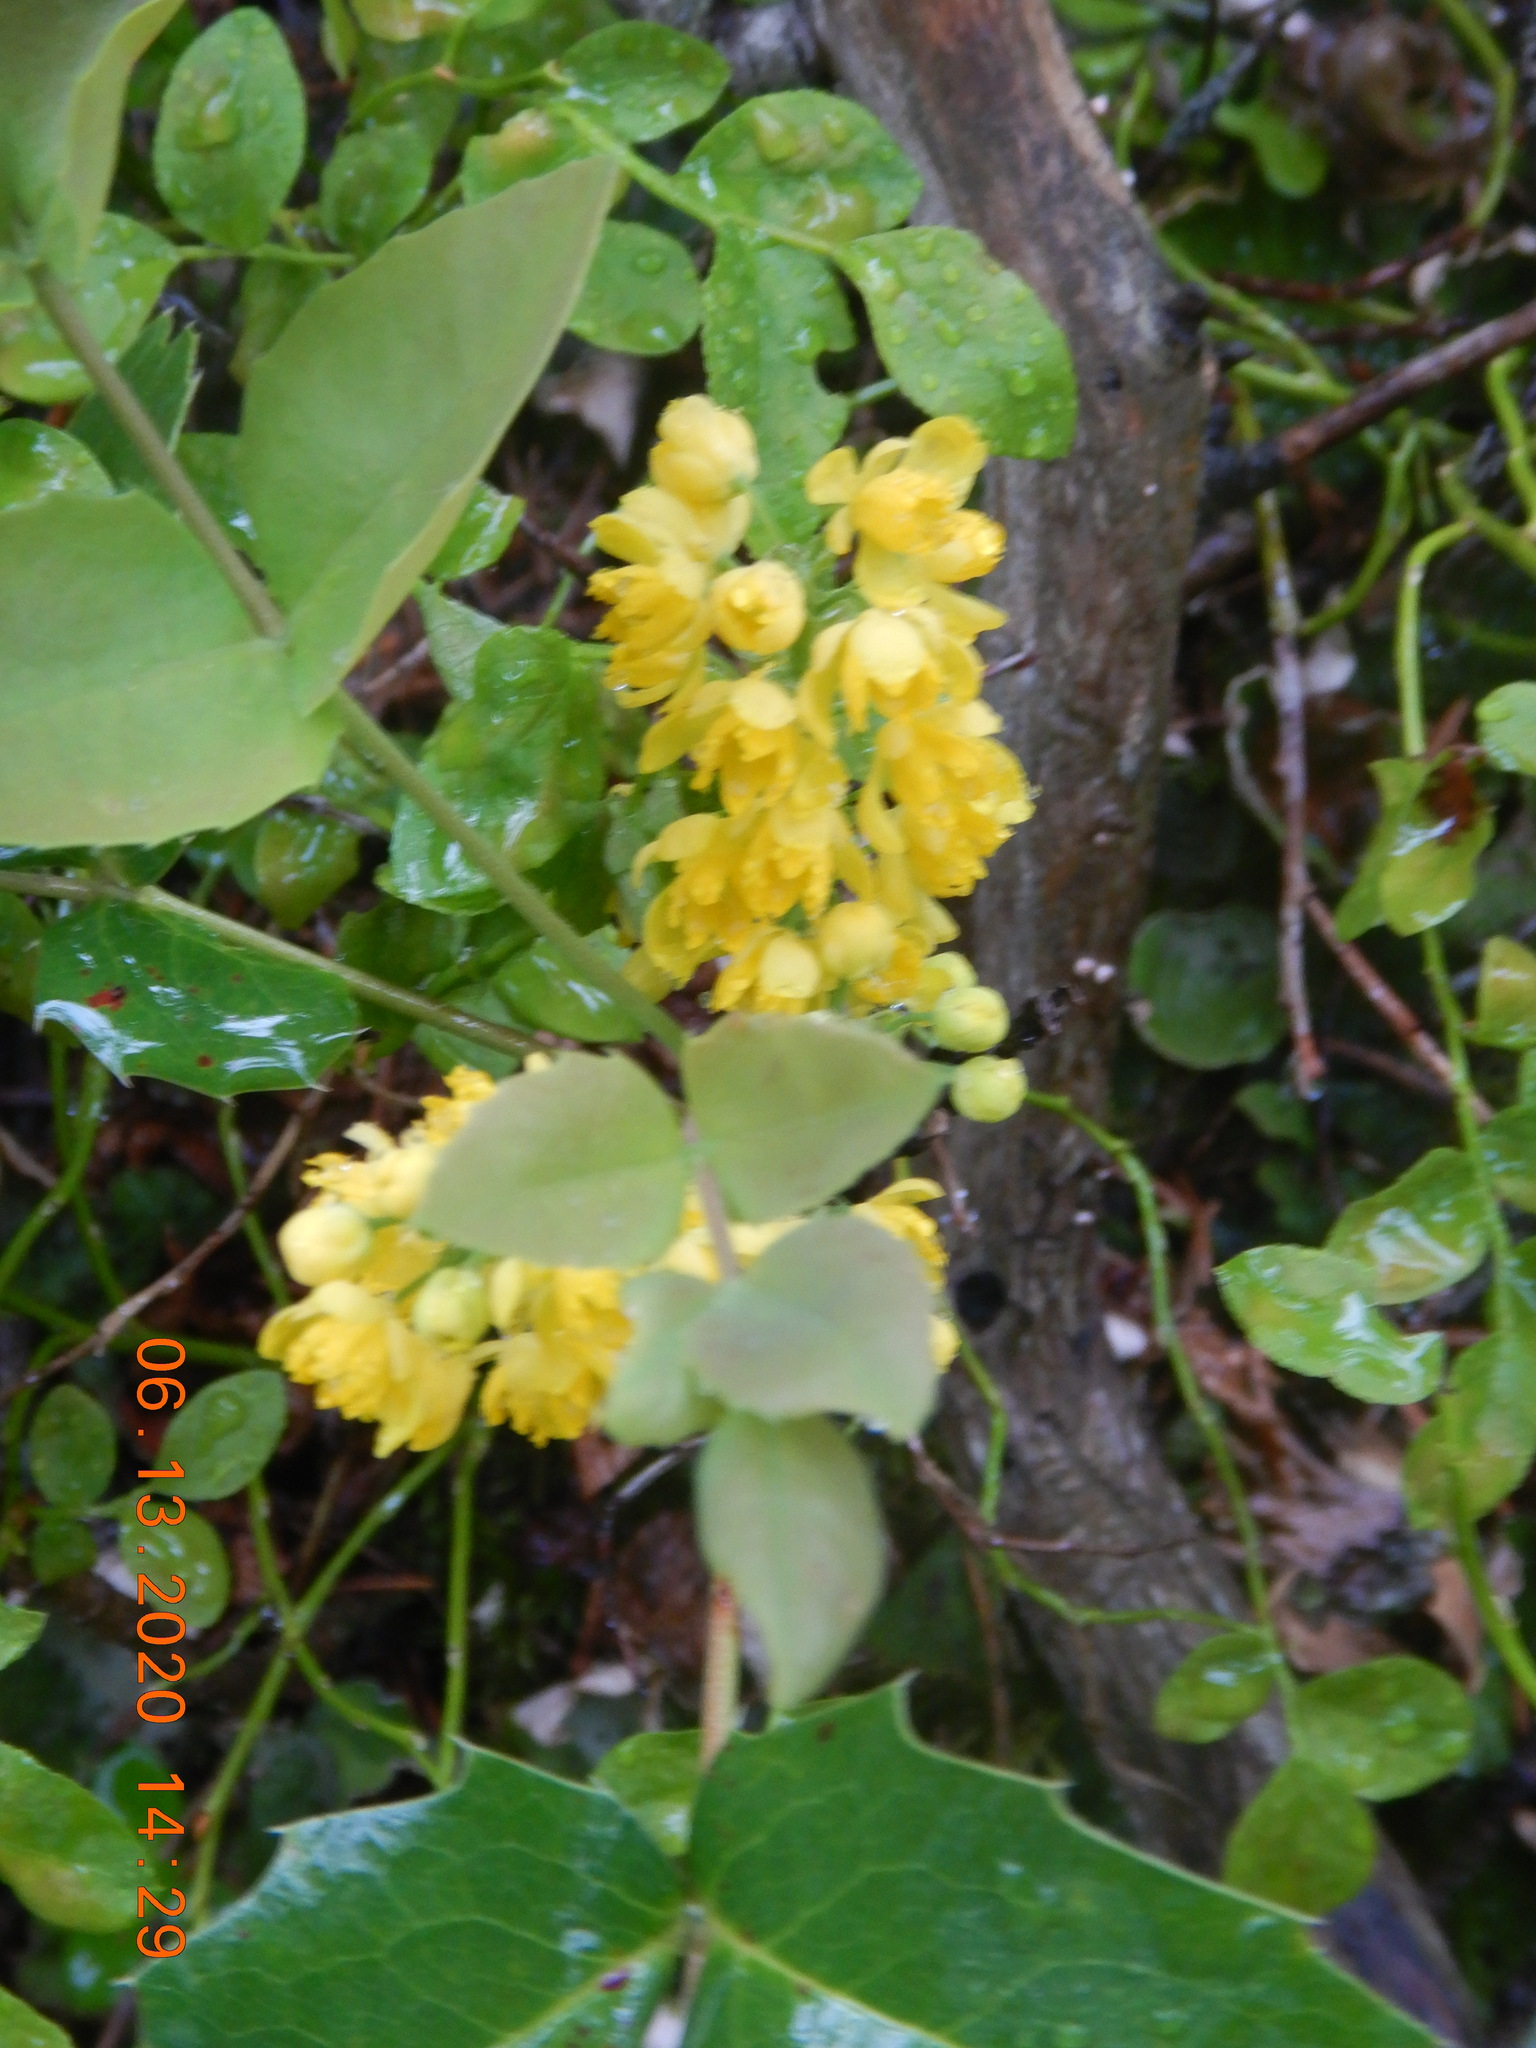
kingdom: Plantae
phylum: Tracheophyta
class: Magnoliopsida
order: Ranunculales
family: Berberidaceae
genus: Mahonia
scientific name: Mahonia repens
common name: Creeping oregon-grape
